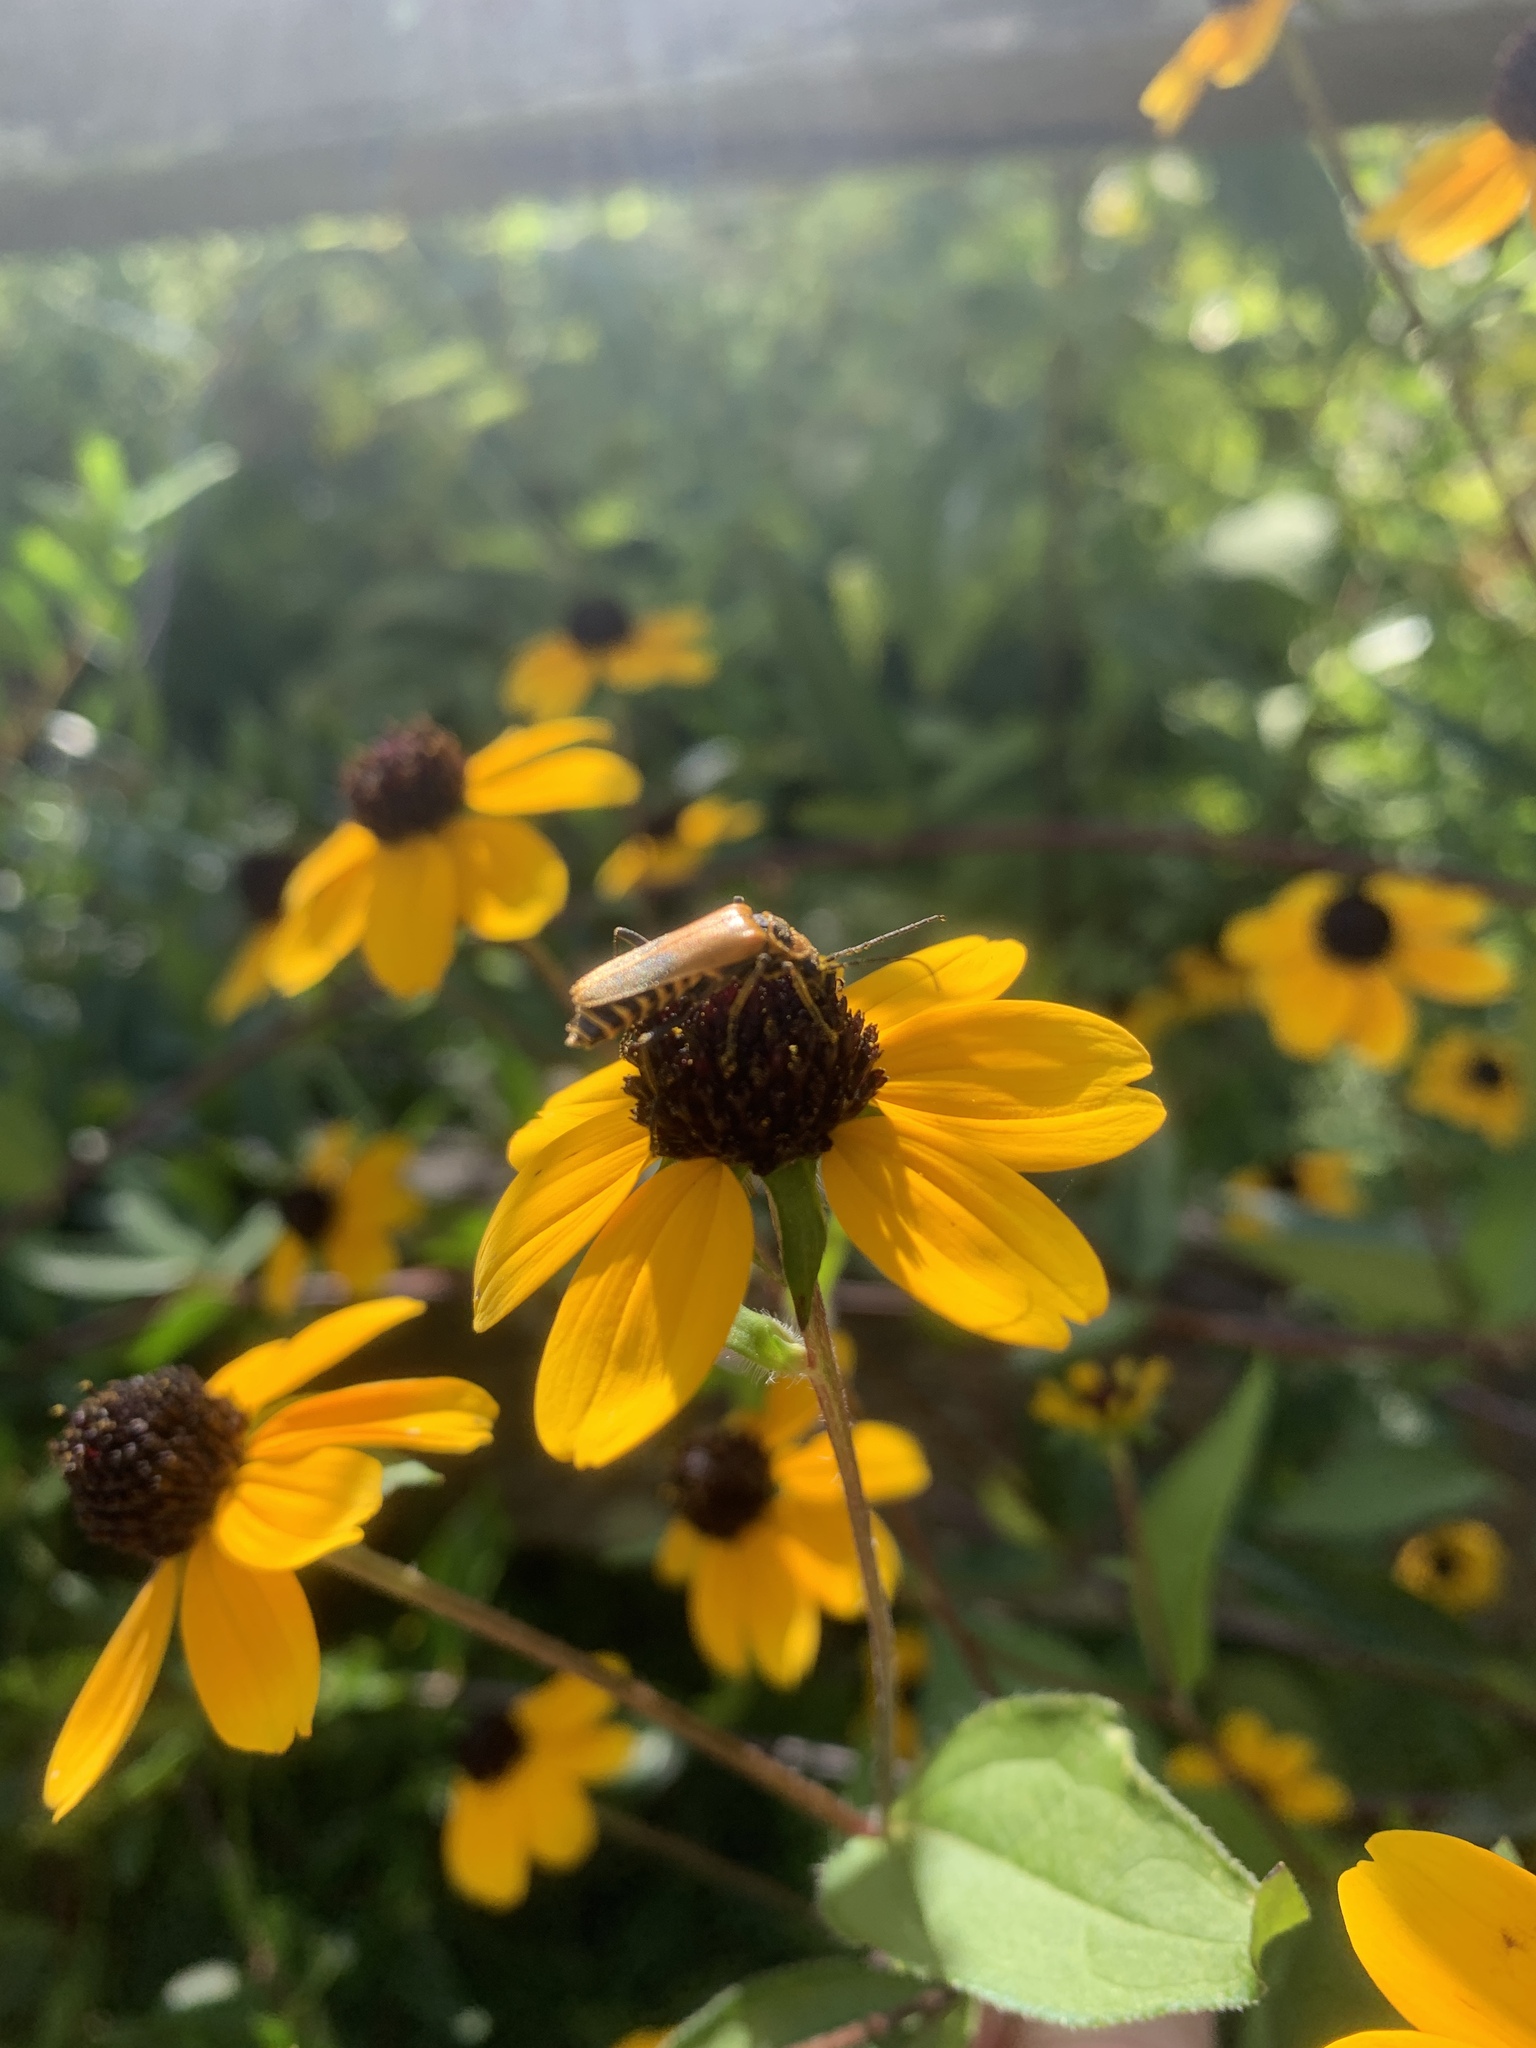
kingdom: Animalia
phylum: Arthropoda
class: Insecta
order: Coleoptera
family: Cantharidae
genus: Chauliognathus
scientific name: Chauliognathus pensylvanicus
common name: Goldenrod soldier beetle
